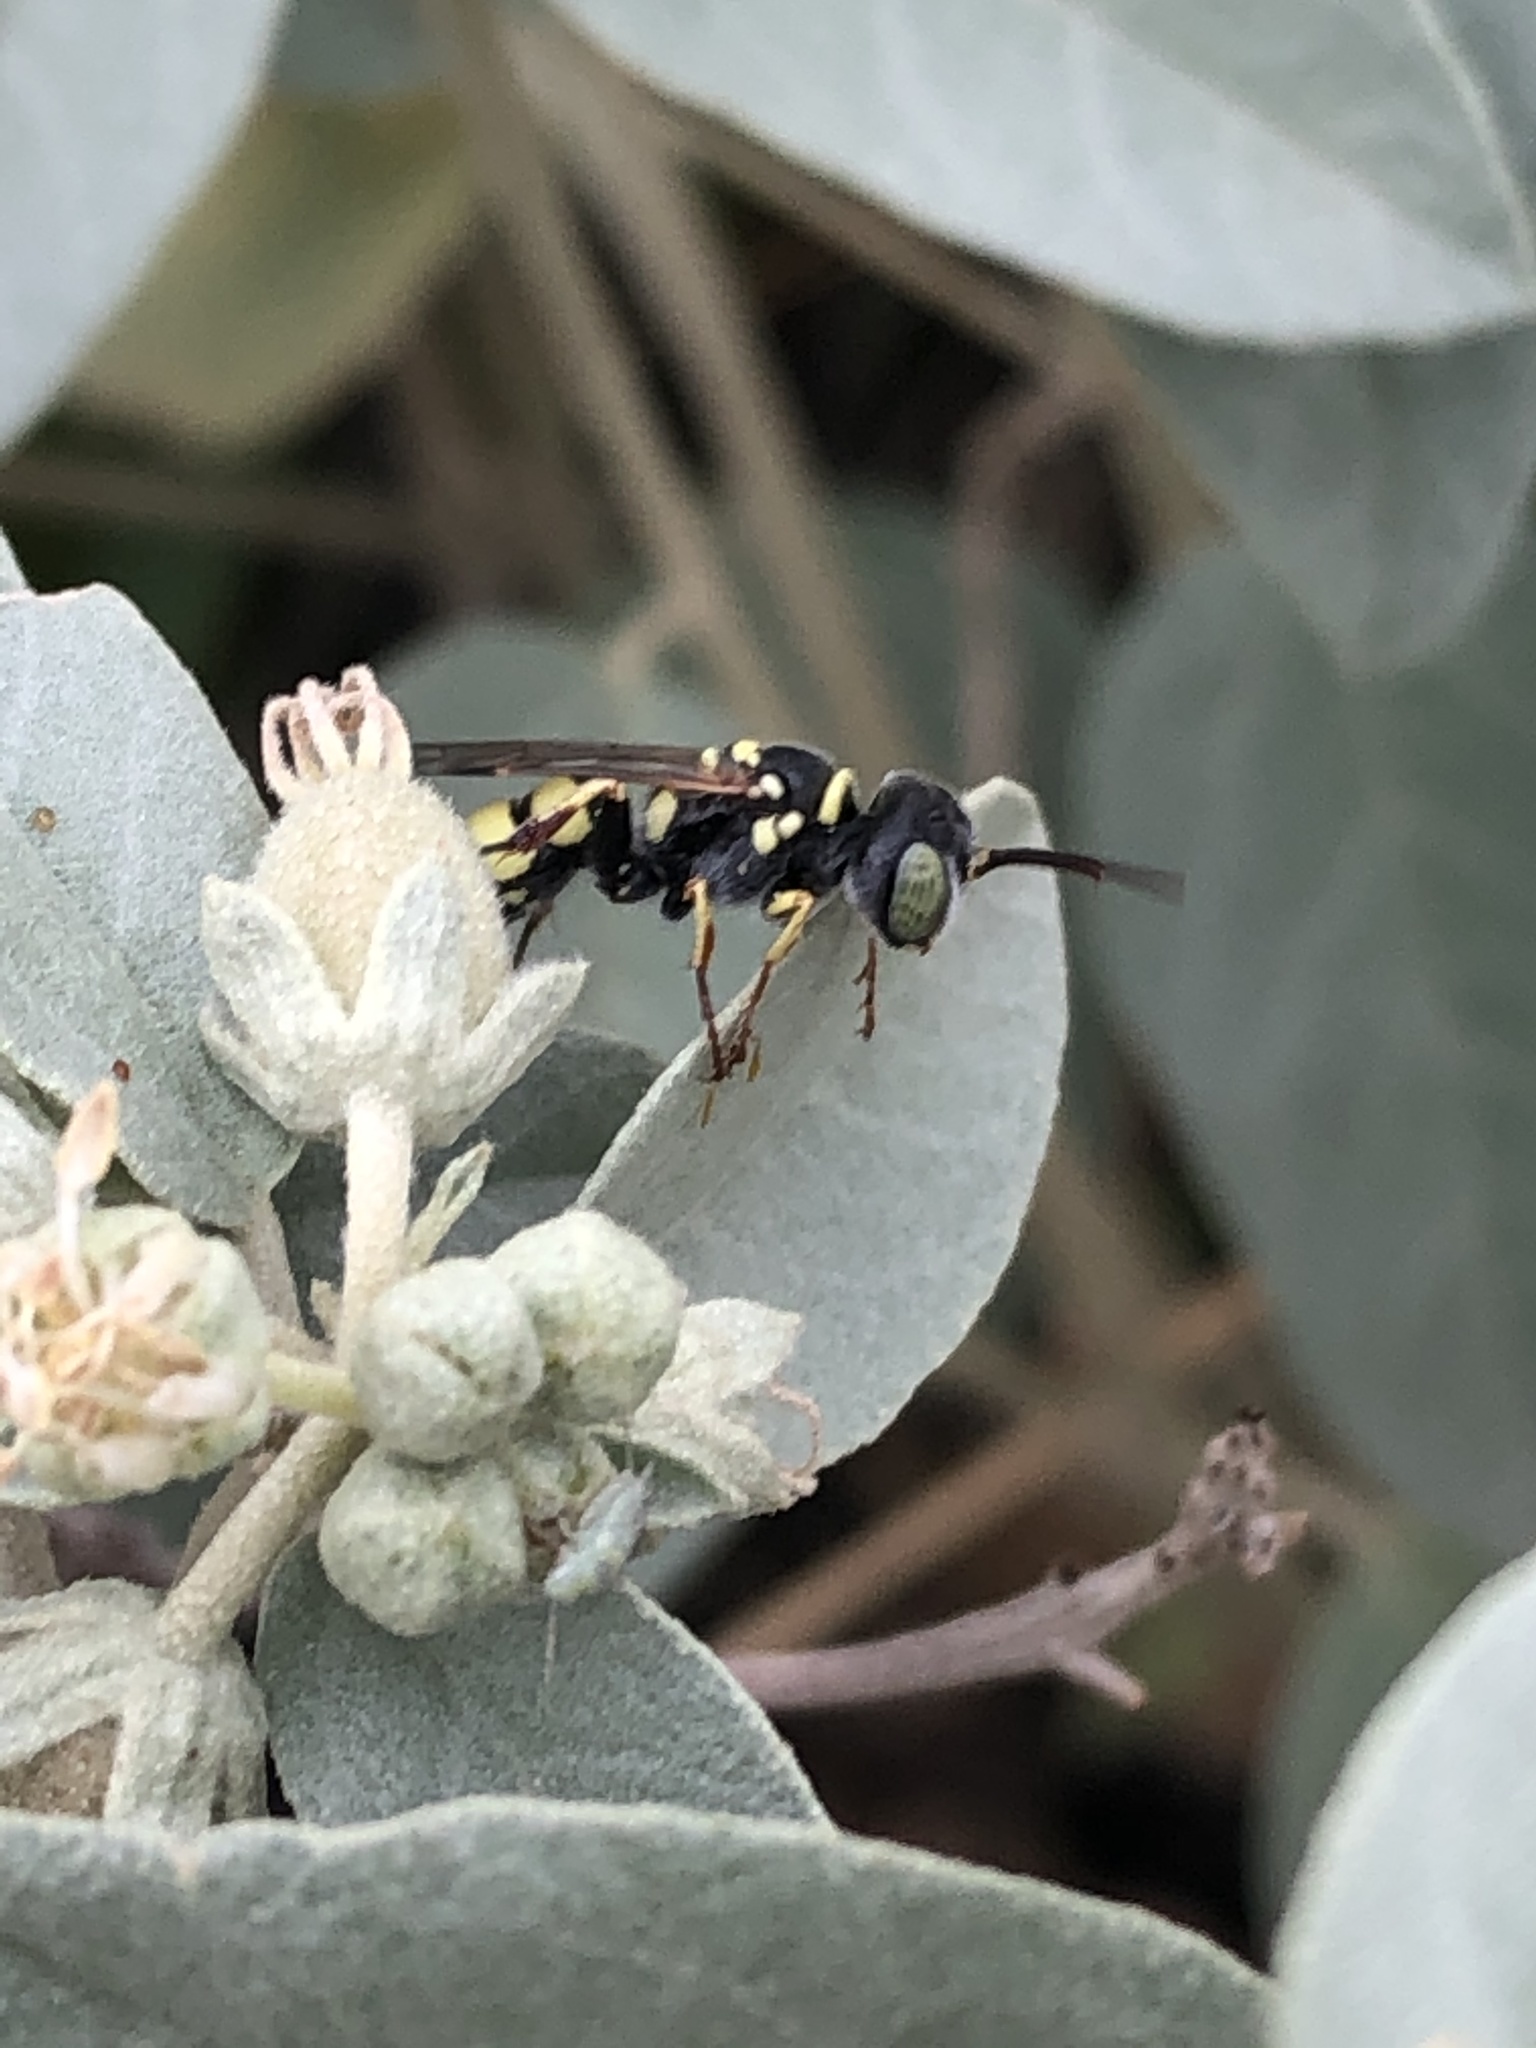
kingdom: Animalia
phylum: Arthropoda
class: Insecta
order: Hymenoptera
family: Crabronidae
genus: Clypeadon
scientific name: Clypeadon
